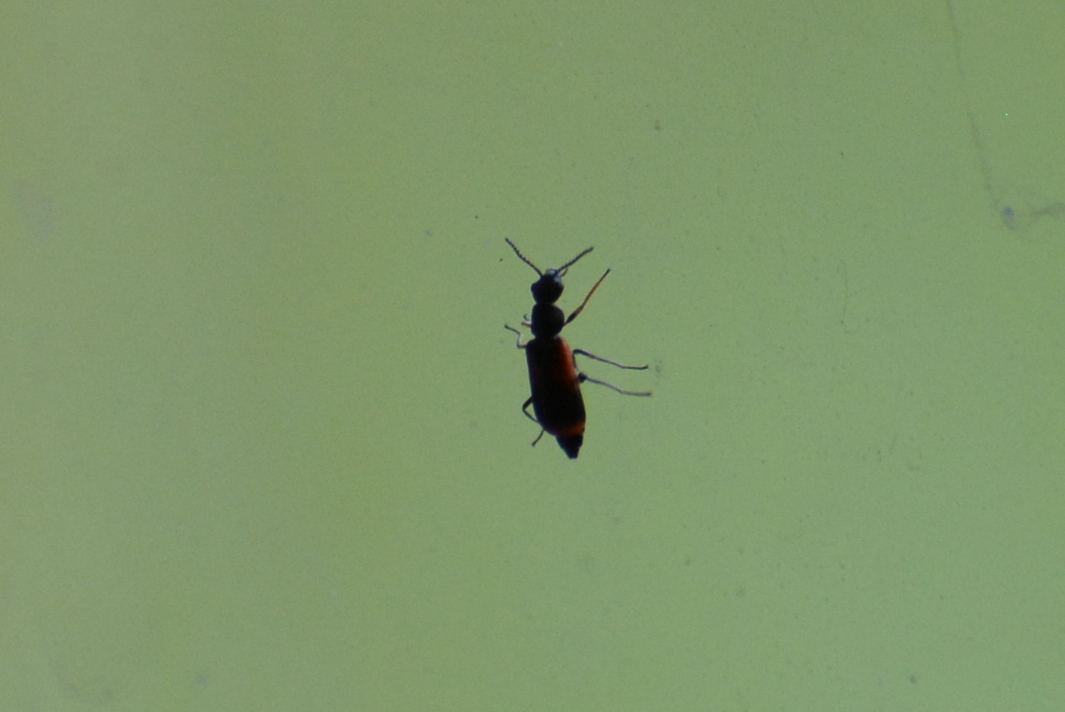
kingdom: Animalia
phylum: Arthropoda
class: Insecta
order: Coleoptera
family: Melyridae
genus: Anthocomus
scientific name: Anthocomus equestris
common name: Black-banded soft-winged flower beetle
